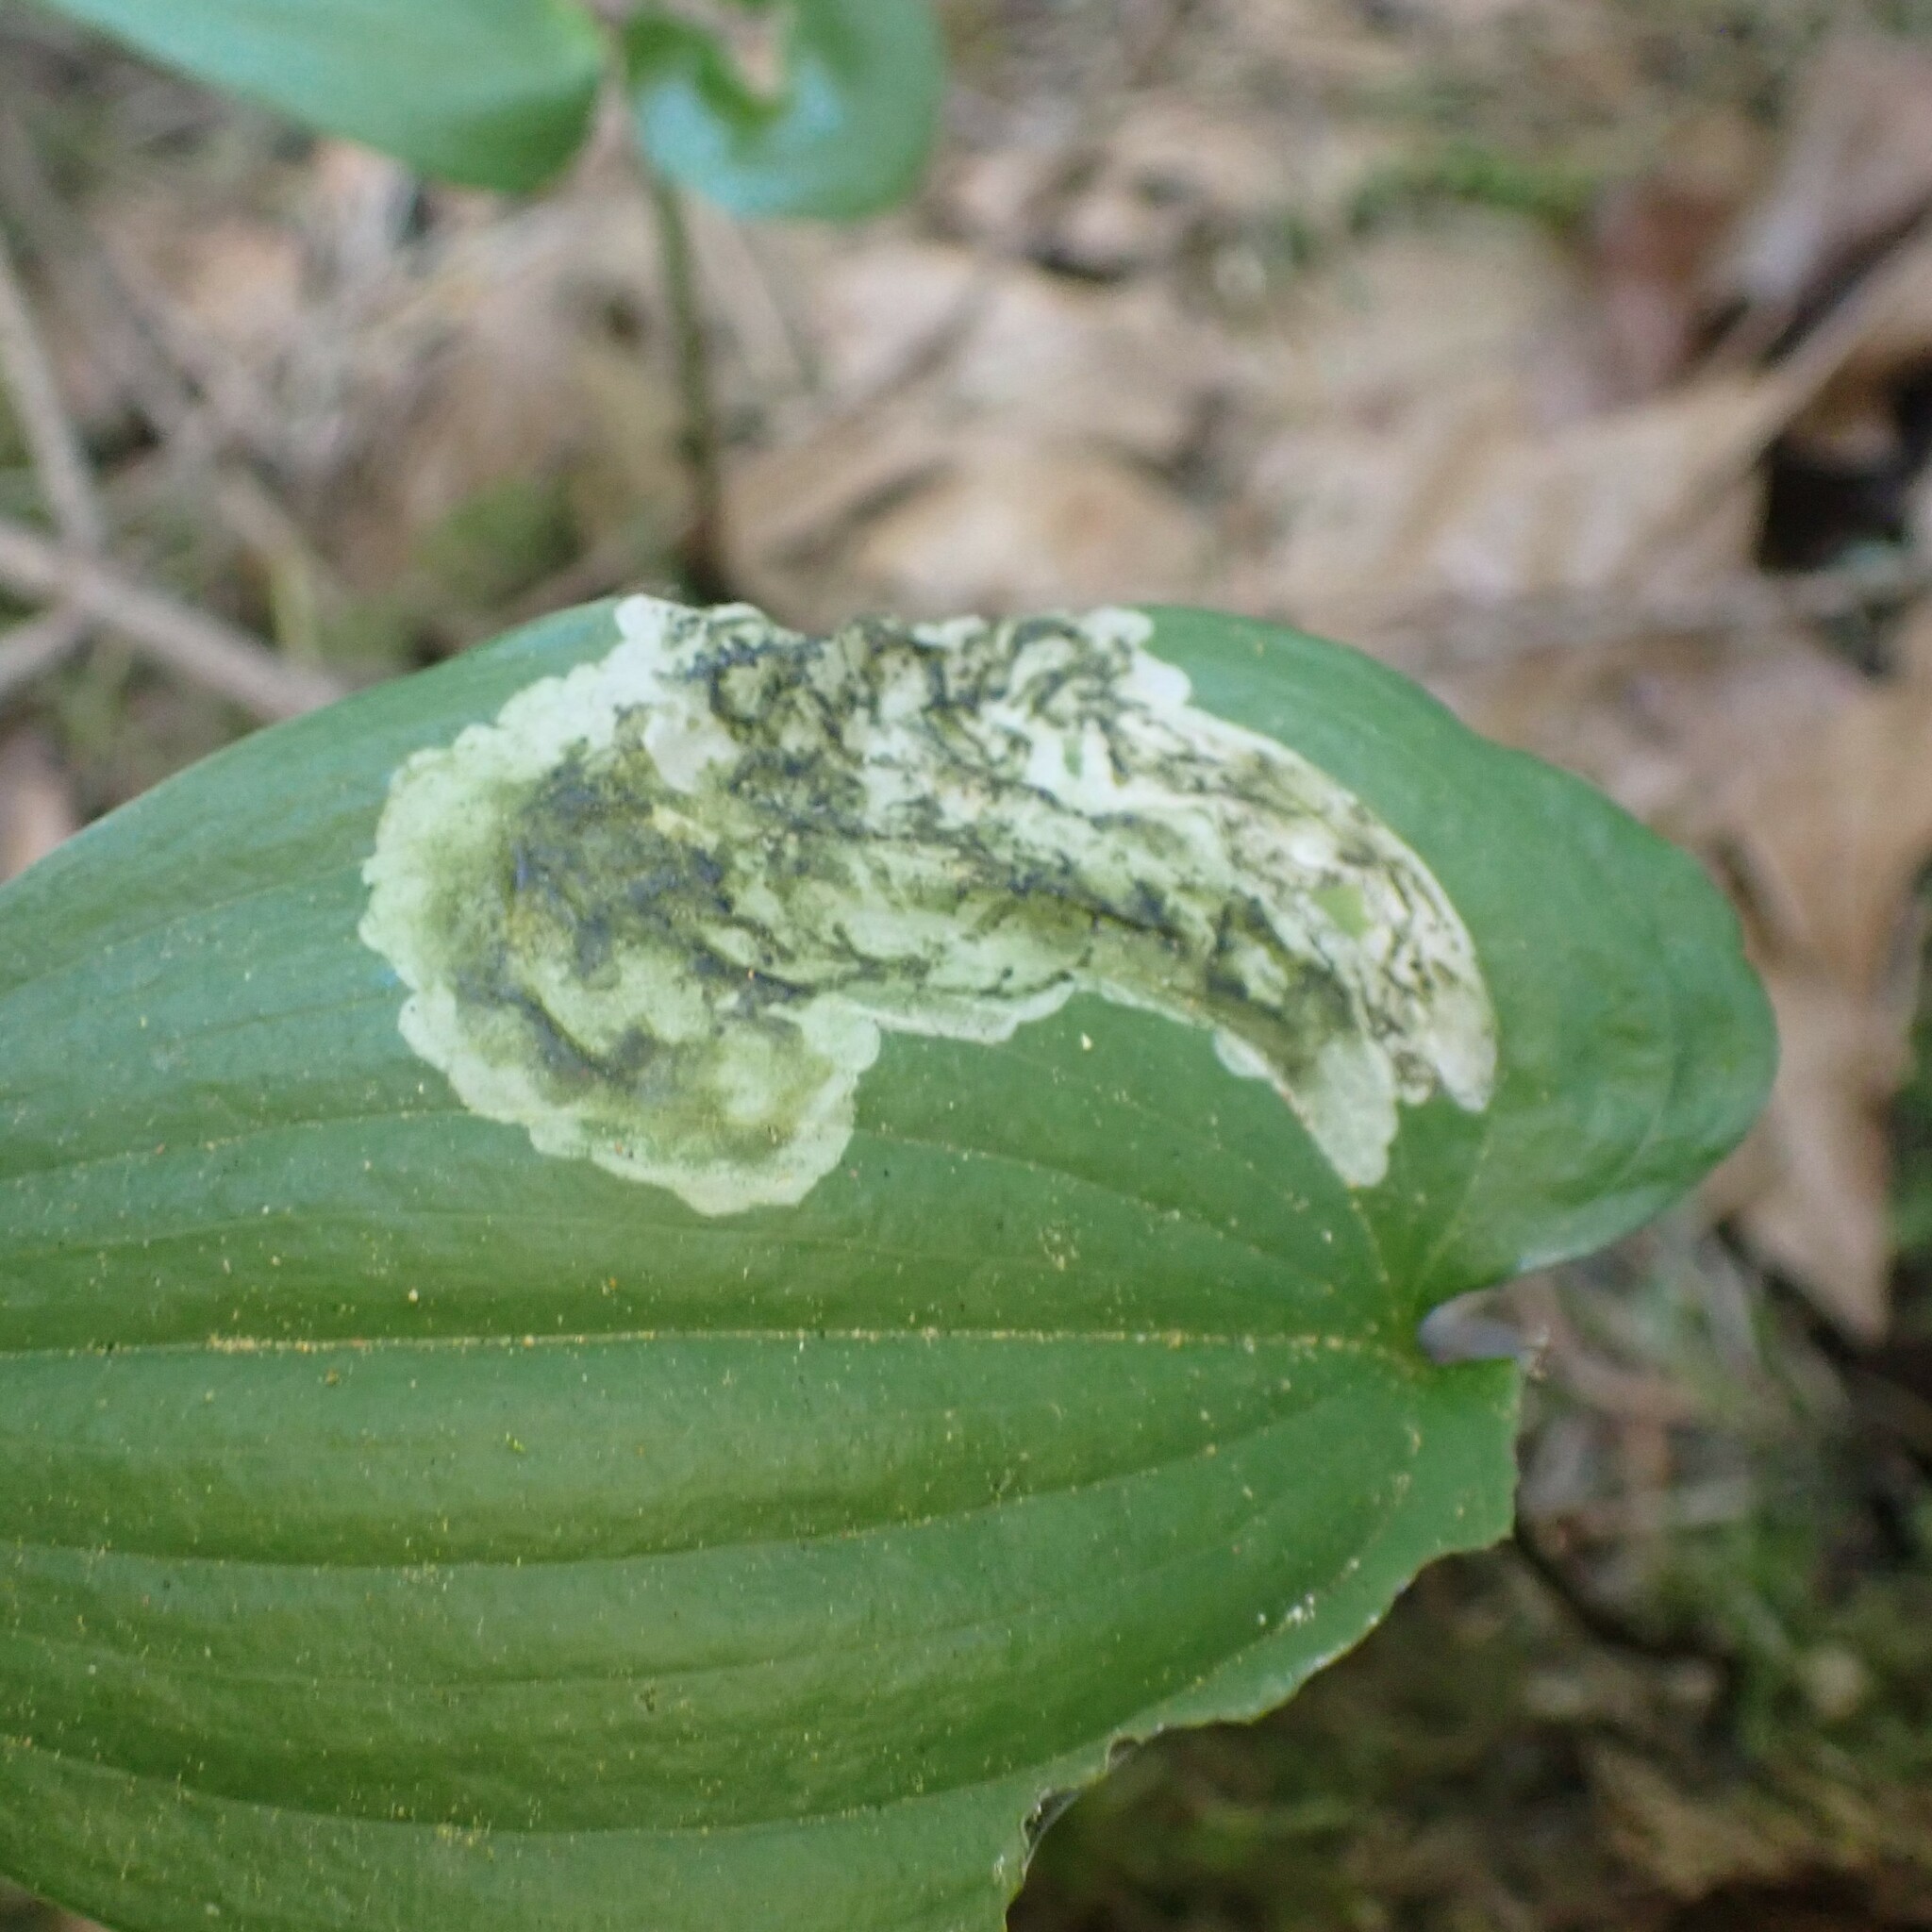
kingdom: Animalia
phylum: Arthropoda
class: Insecta
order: Diptera
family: Scathophagidae
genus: Leptopa
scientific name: Leptopa
